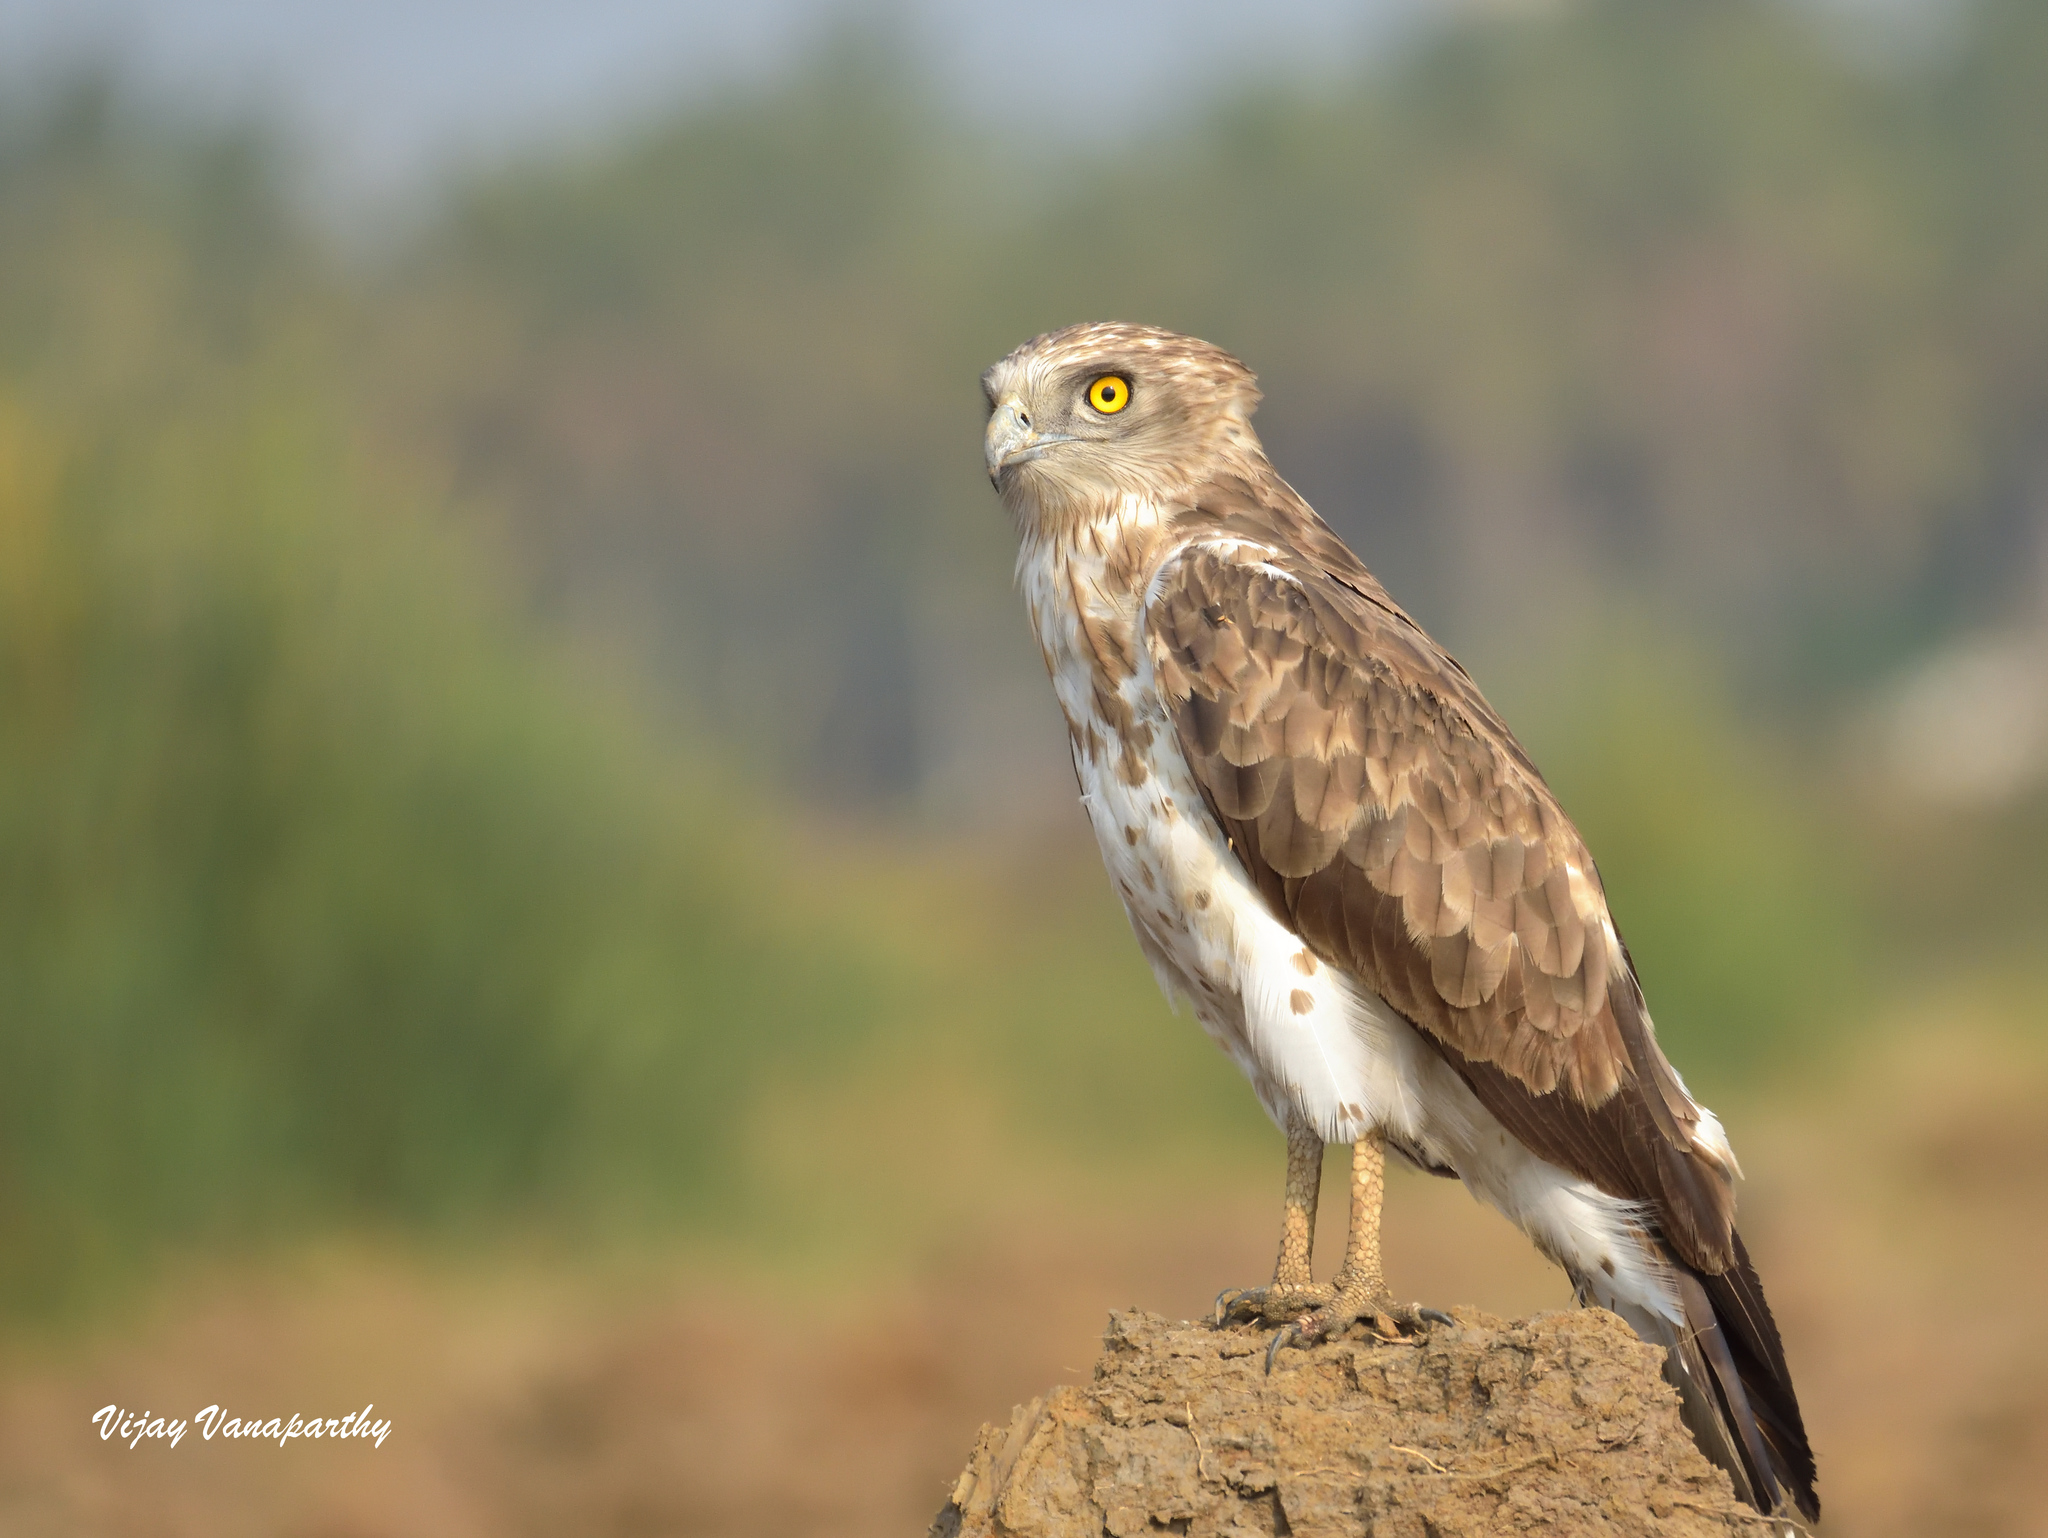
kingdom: Animalia
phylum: Chordata
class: Aves
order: Accipitriformes
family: Accipitridae
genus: Circaetus
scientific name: Circaetus gallicus
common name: Short-toed snake eagle
